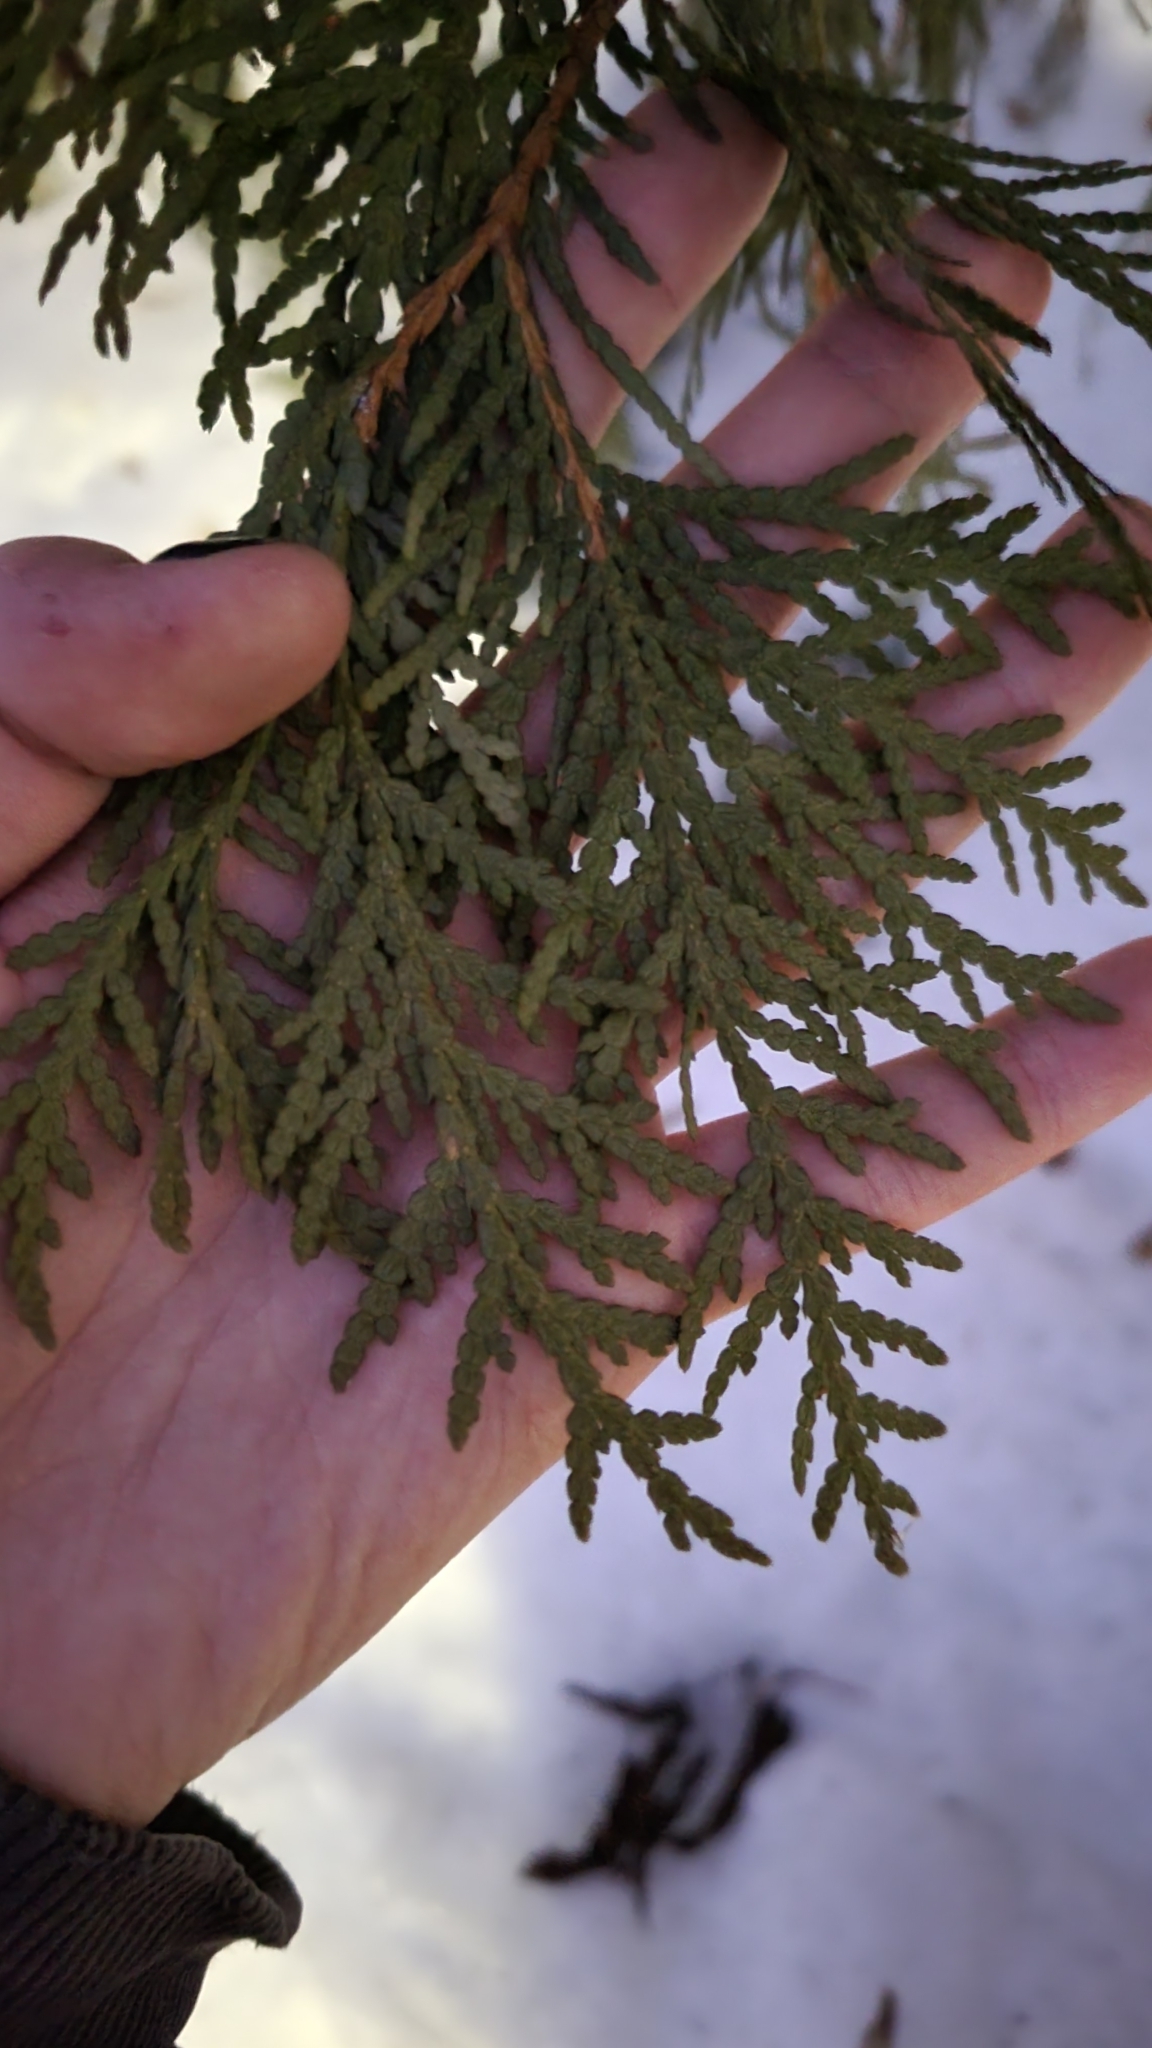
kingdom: Plantae
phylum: Tracheophyta
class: Pinopsida
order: Pinales
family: Cupressaceae
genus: Thuja
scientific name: Thuja occidentalis
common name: Northern white-cedar
